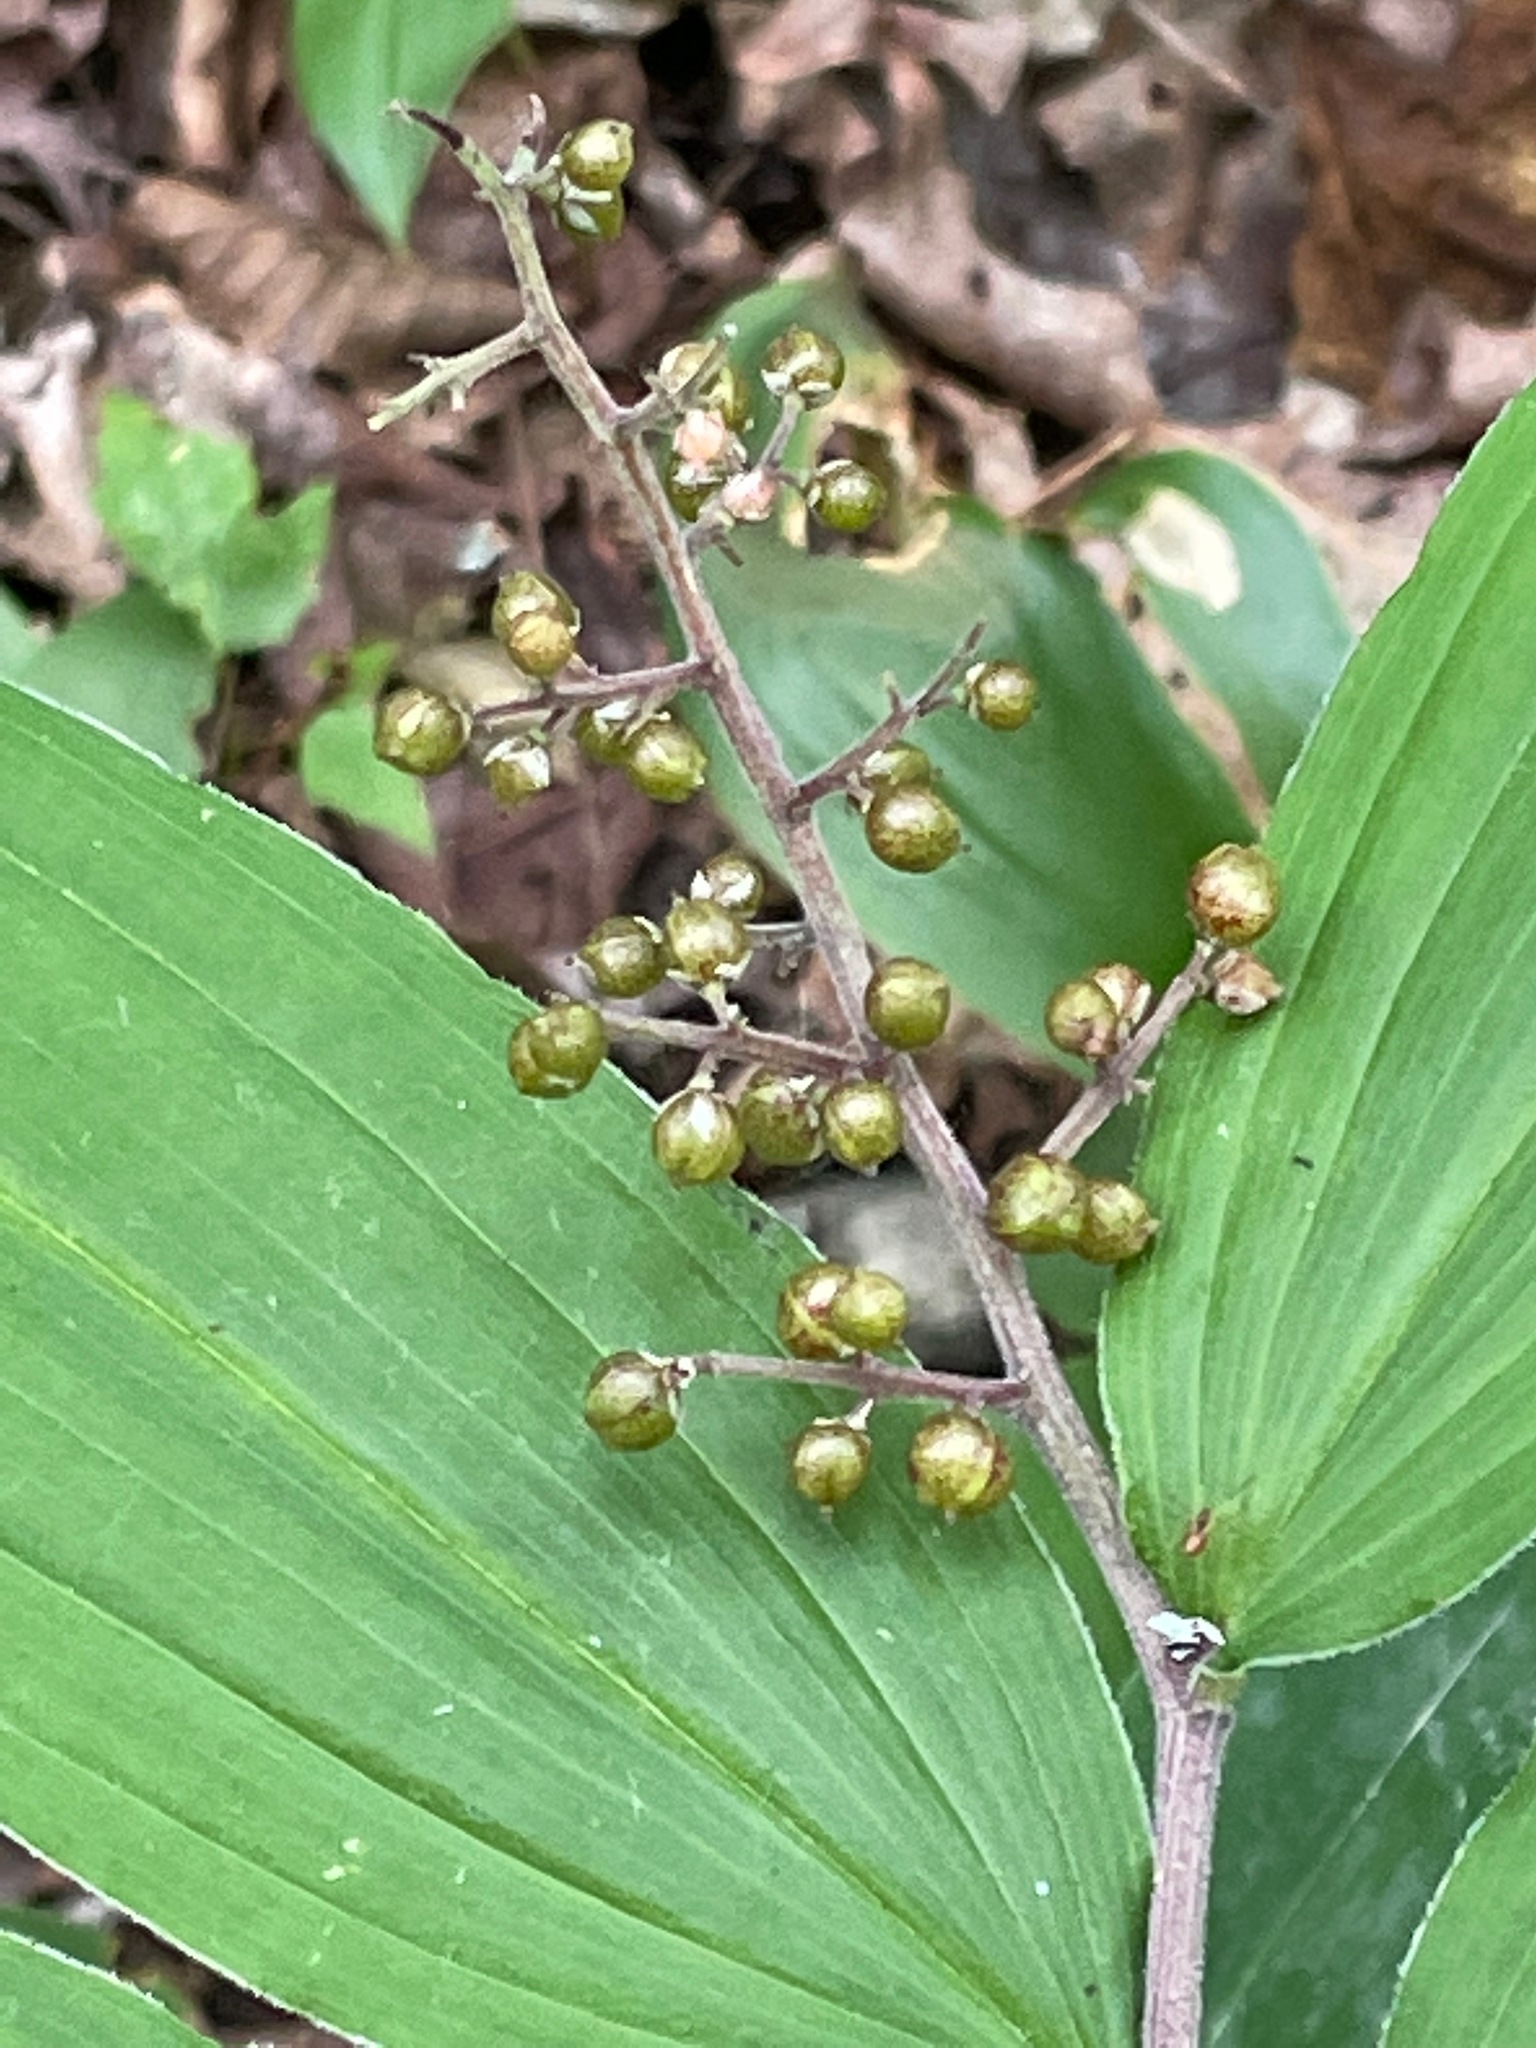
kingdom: Plantae
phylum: Tracheophyta
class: Liliopsida
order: Asparagales
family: Asparagaceae
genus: Maianthemum
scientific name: Maianthemum racemosum
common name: False spikenard
